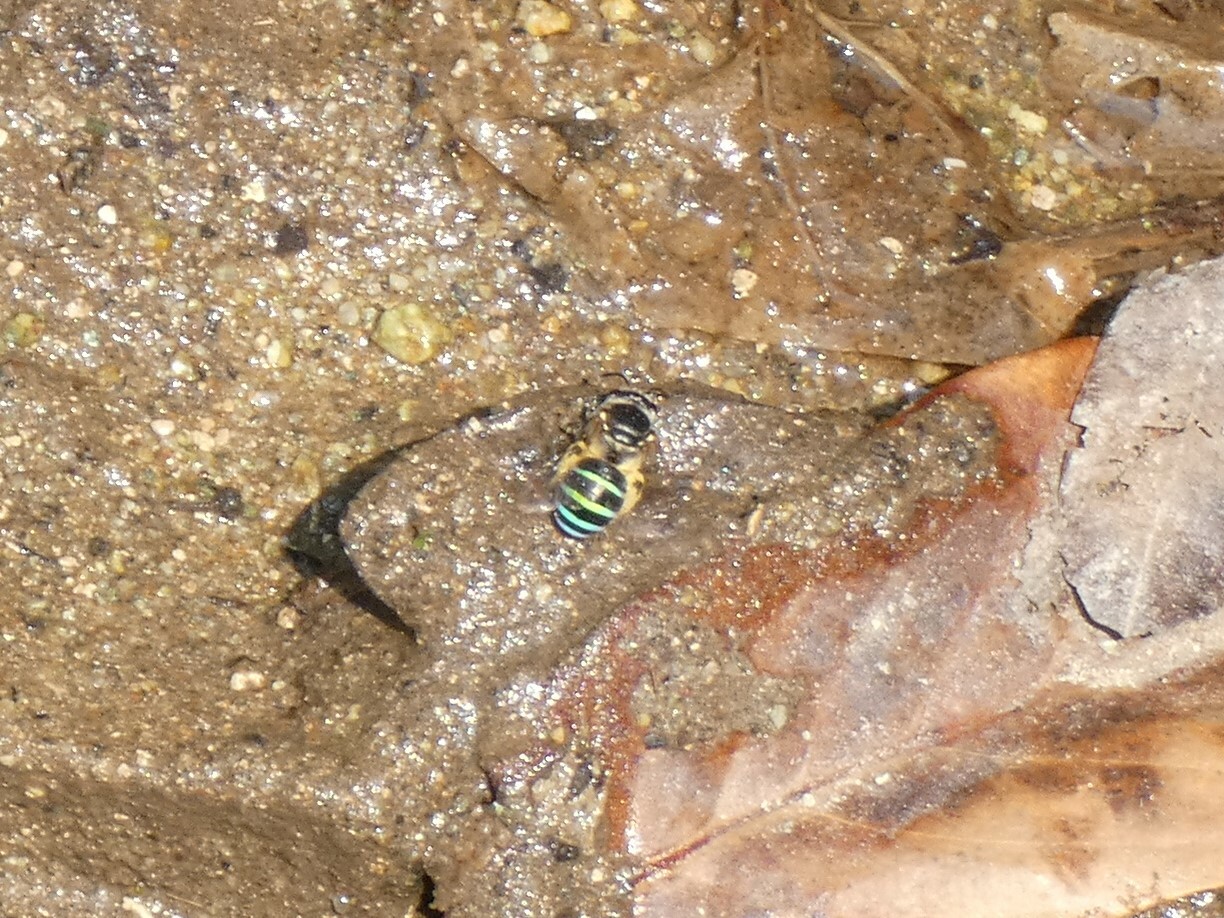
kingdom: Animalia
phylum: Arthropoda
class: Insecta
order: Hymenoptera
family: Halictidae
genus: Nomia
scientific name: Nomia ellioti
